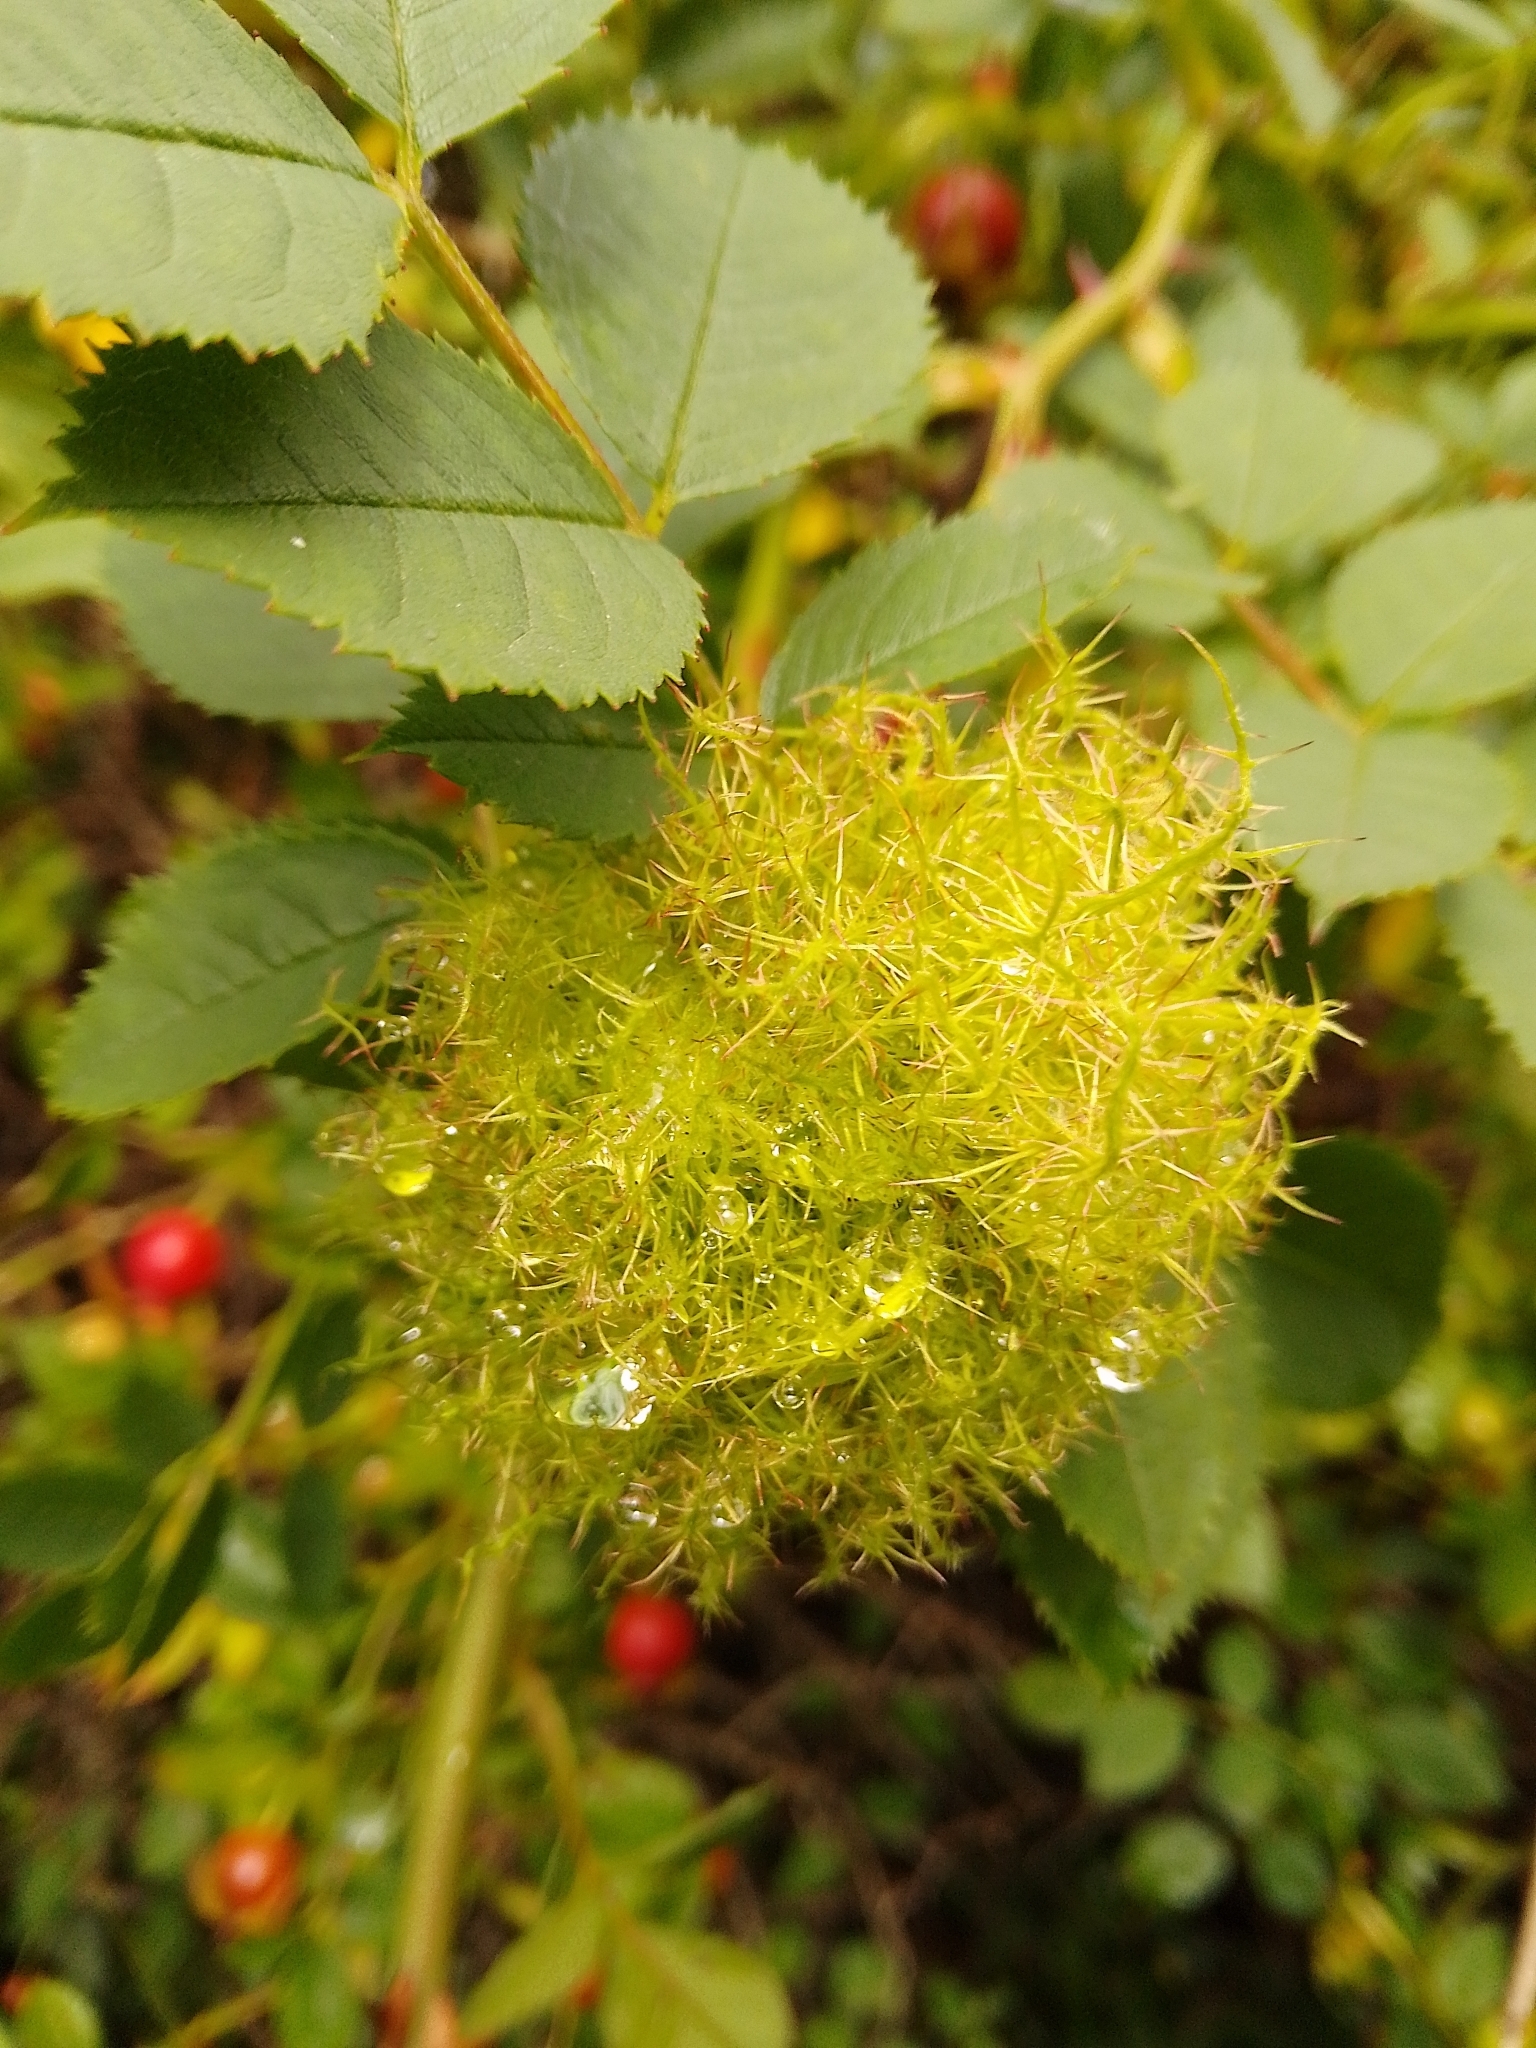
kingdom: Animalia
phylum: Arthropoda
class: Insecta
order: Hymenoptera
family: Cynipidae
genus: Diplolepis
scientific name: Diplolepis rosae
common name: Bedeguar gall
